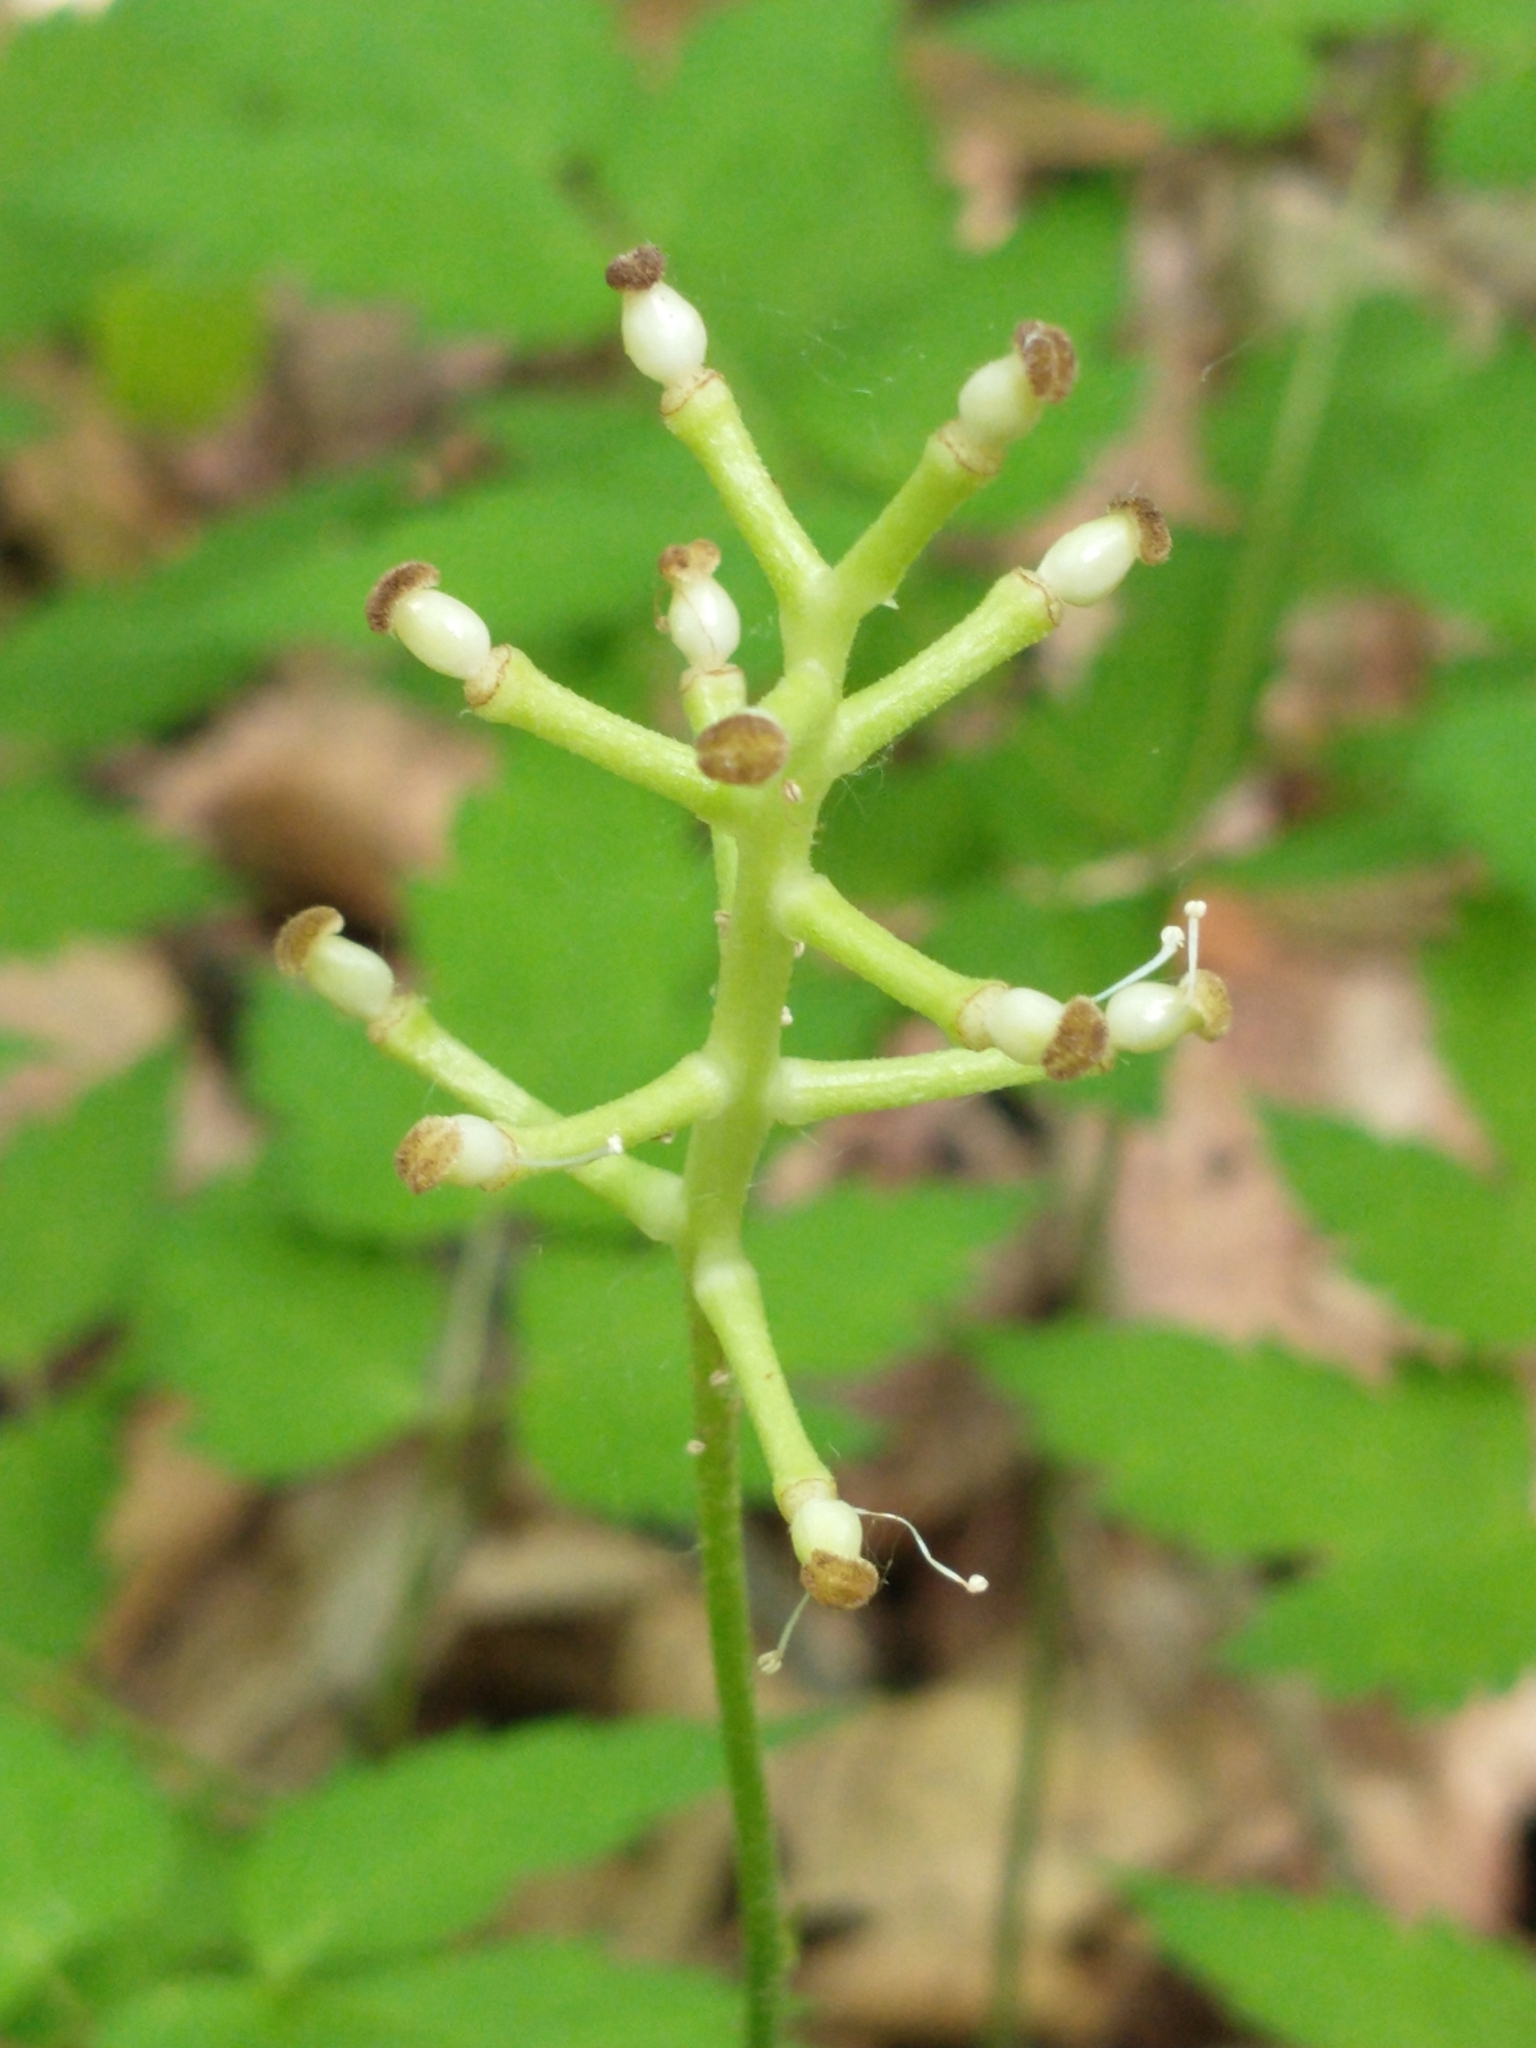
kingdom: Plantae
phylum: Tracheophyta
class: Magnoliopsida
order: Ranunculales
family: Ranunculaceae
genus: Actaea
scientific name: Actaea pachypoda
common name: Doll's-eyes
